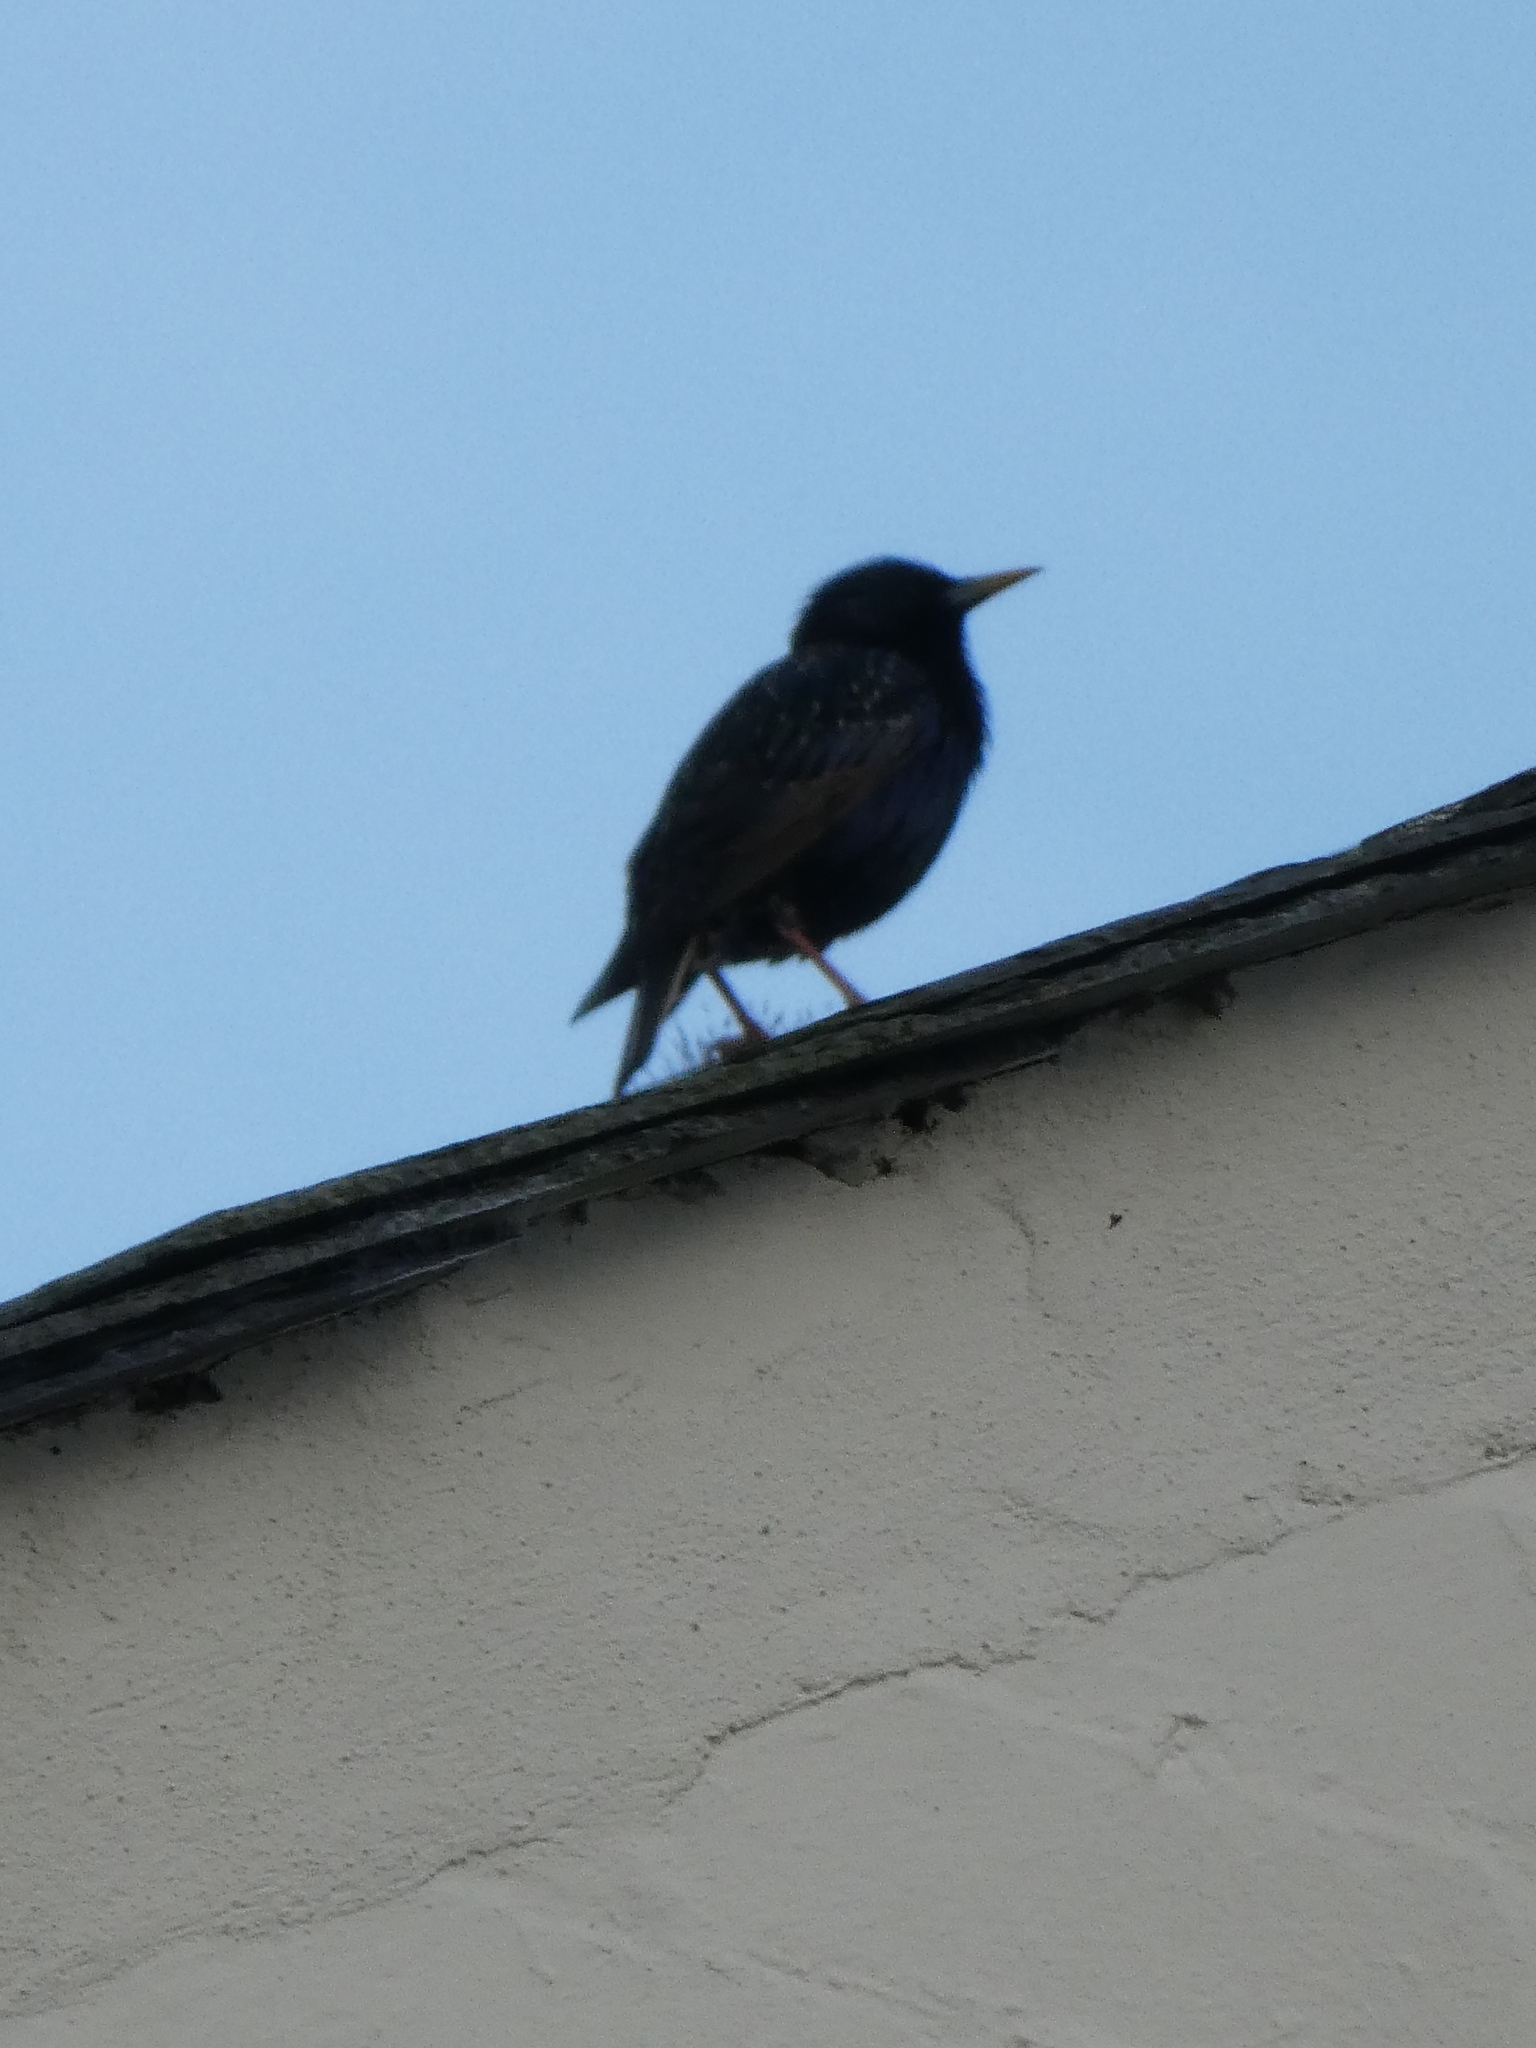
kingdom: Animalia
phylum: Chordata
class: Aves
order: Passeriformes
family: Sturnidae
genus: Sturnus
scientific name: Sturnus vulgaris
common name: Common starling
